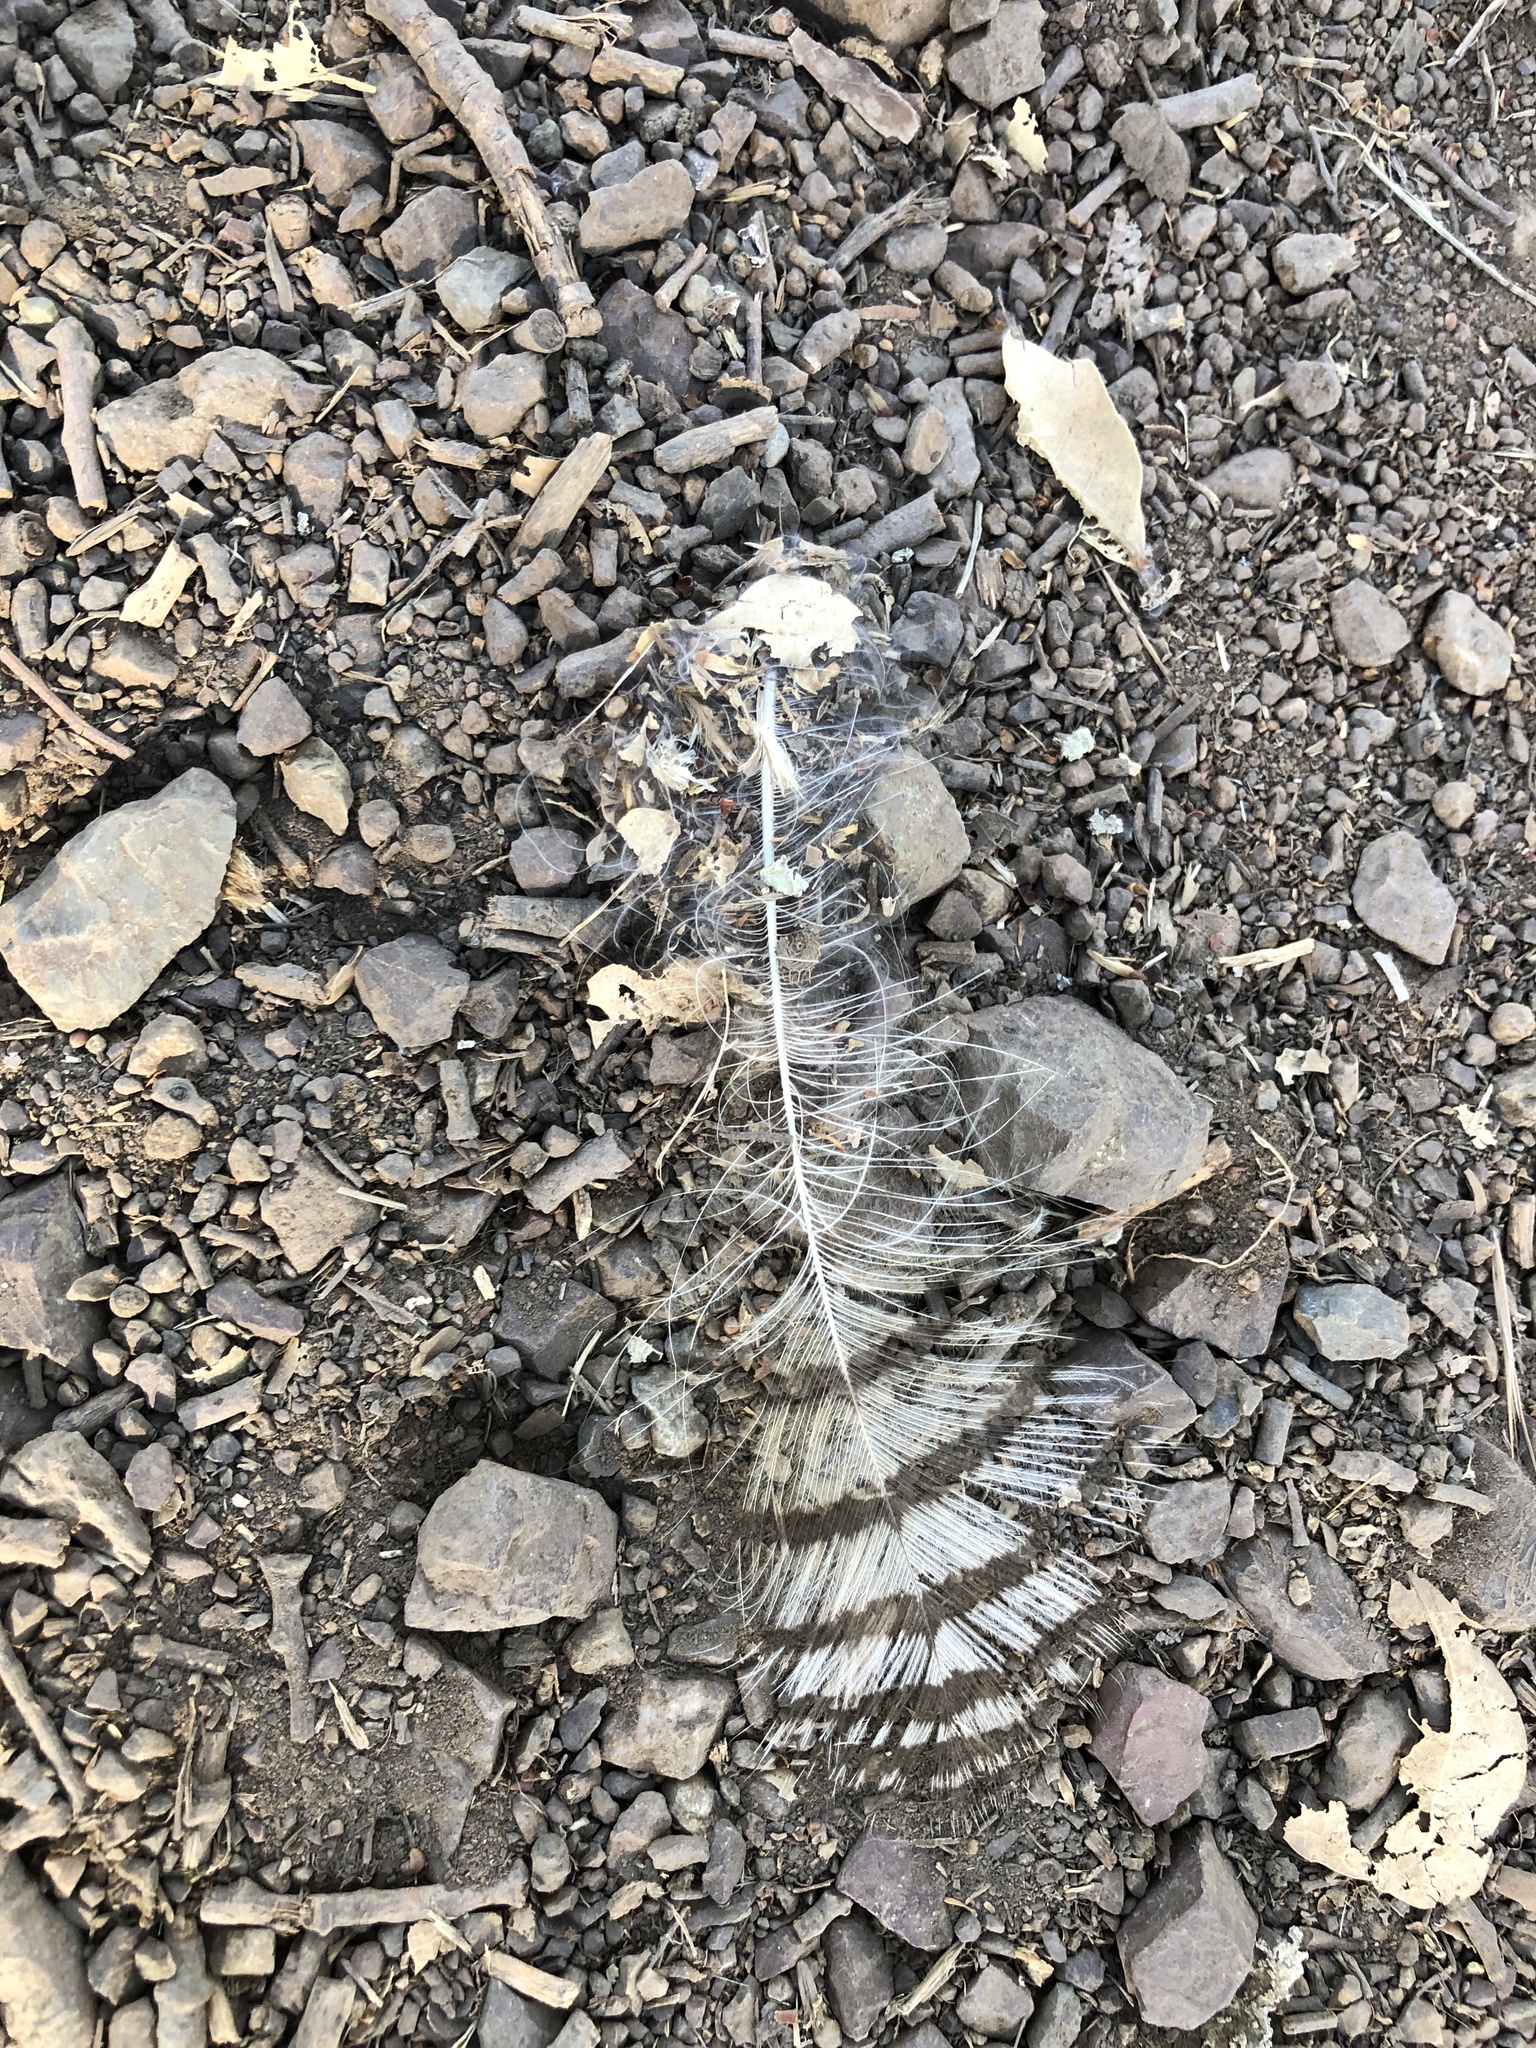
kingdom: Animalia
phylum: Chordata
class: Aves
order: Strigiformes
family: Strigidae
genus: Bubo
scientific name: Bubo virginianus
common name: Great horned owl
